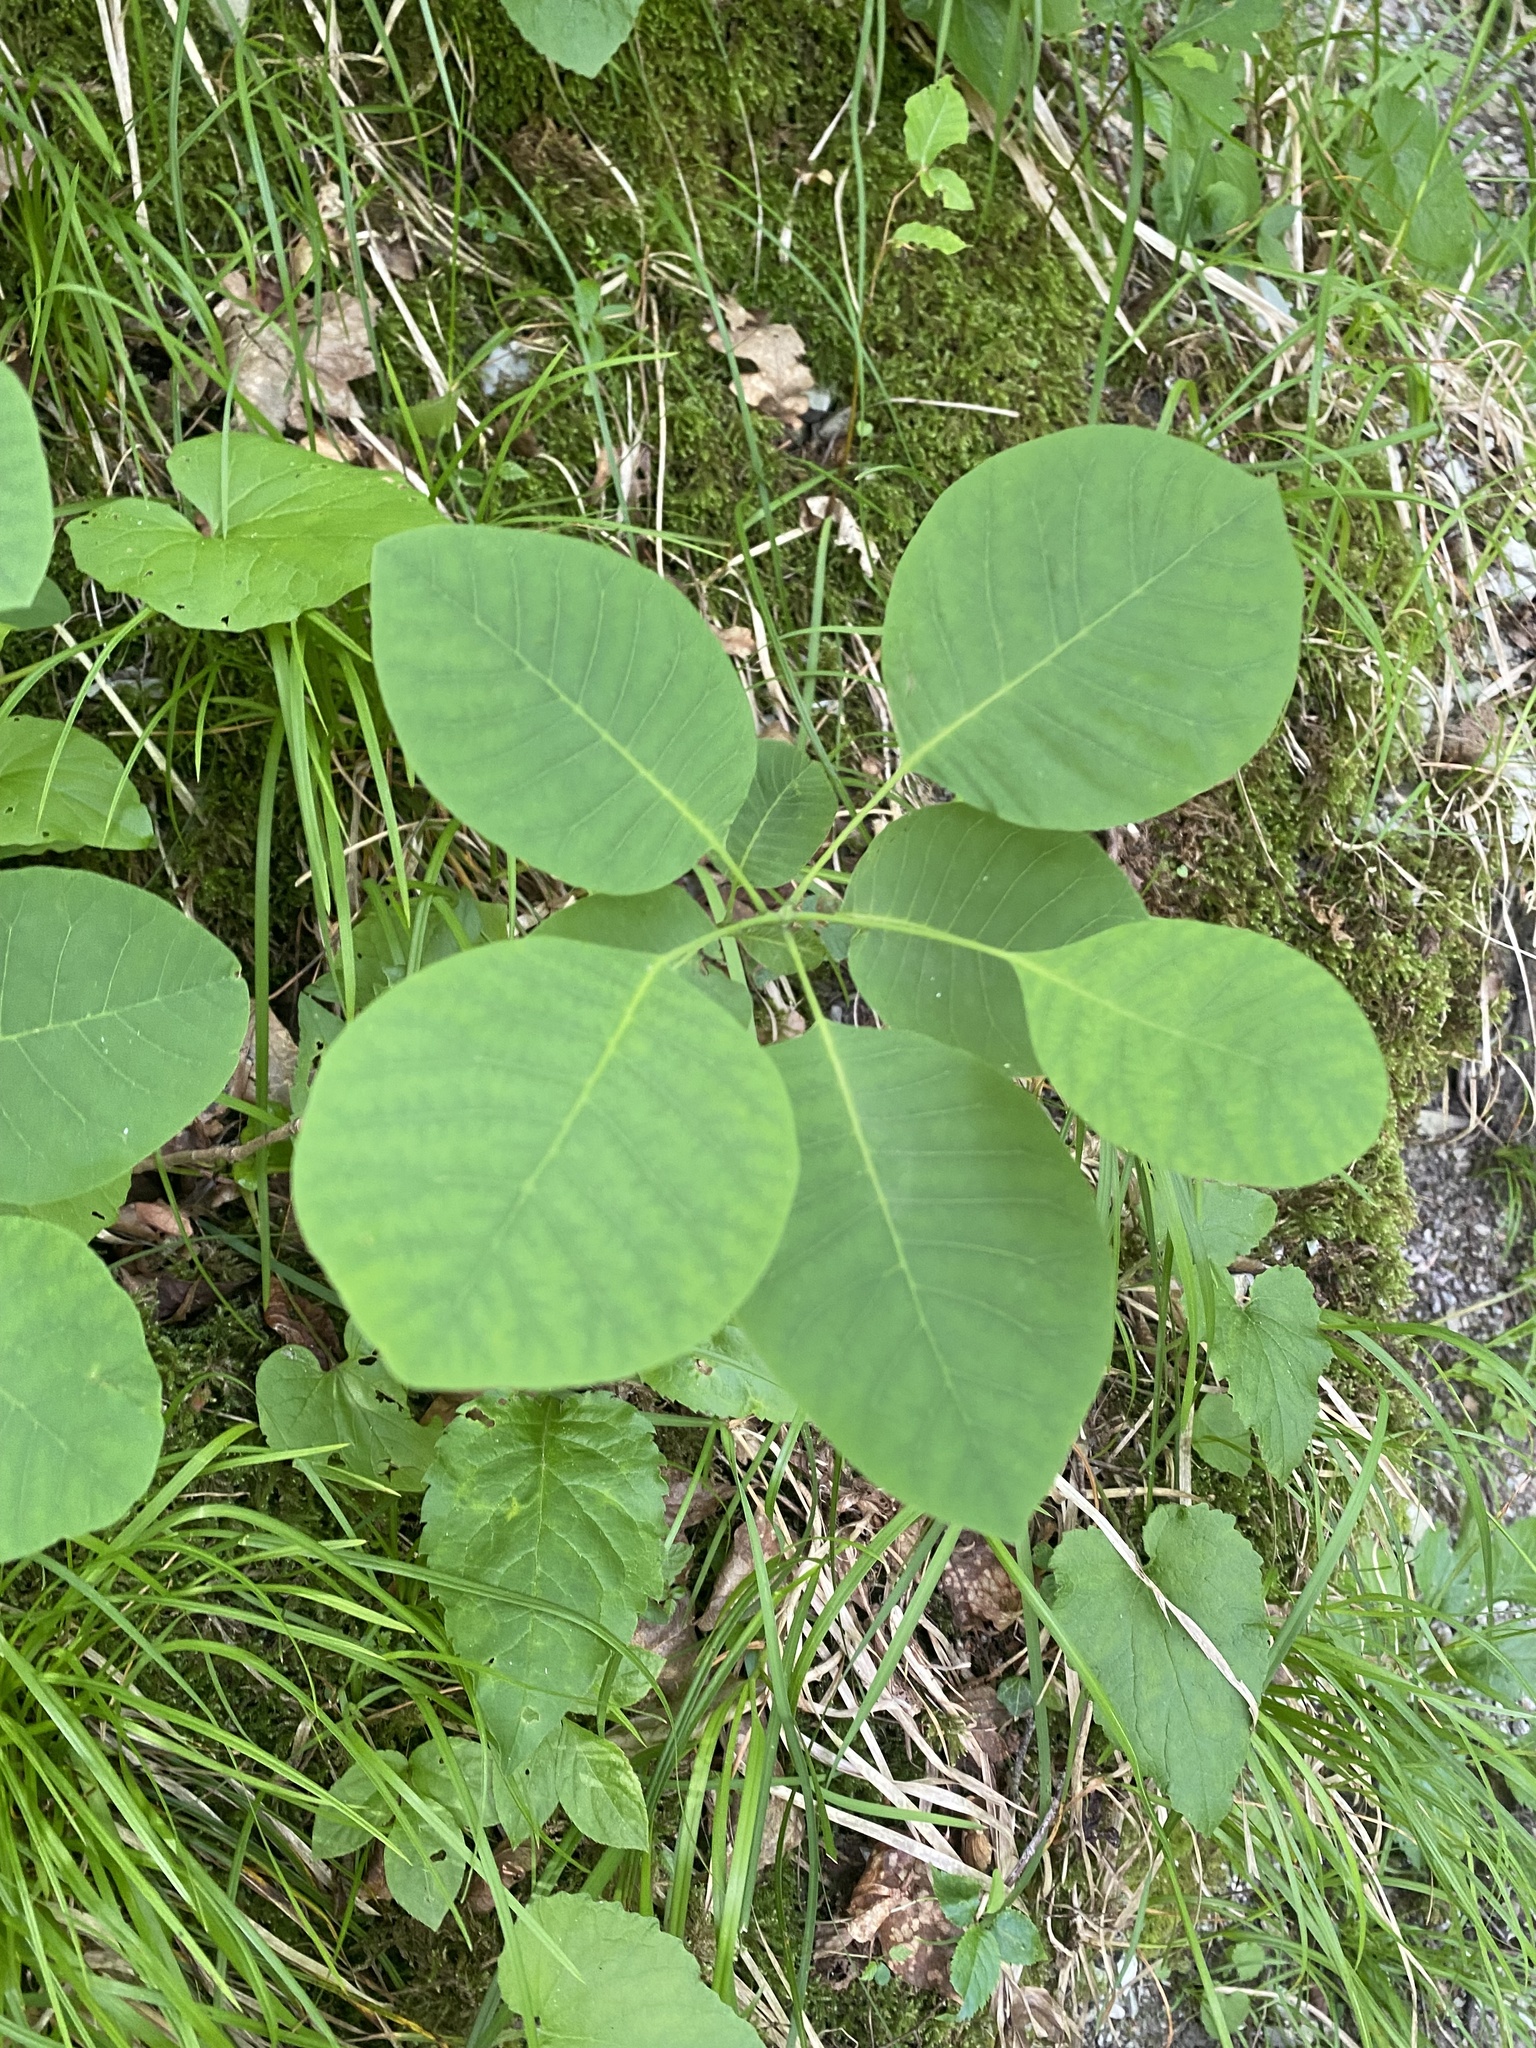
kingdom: Plantae
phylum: Tracheophyta
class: Magnoliopsida
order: Sapindales
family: Anacardiaceae
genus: Cotinus
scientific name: Cotinus coggygria
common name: Smoke-tree
